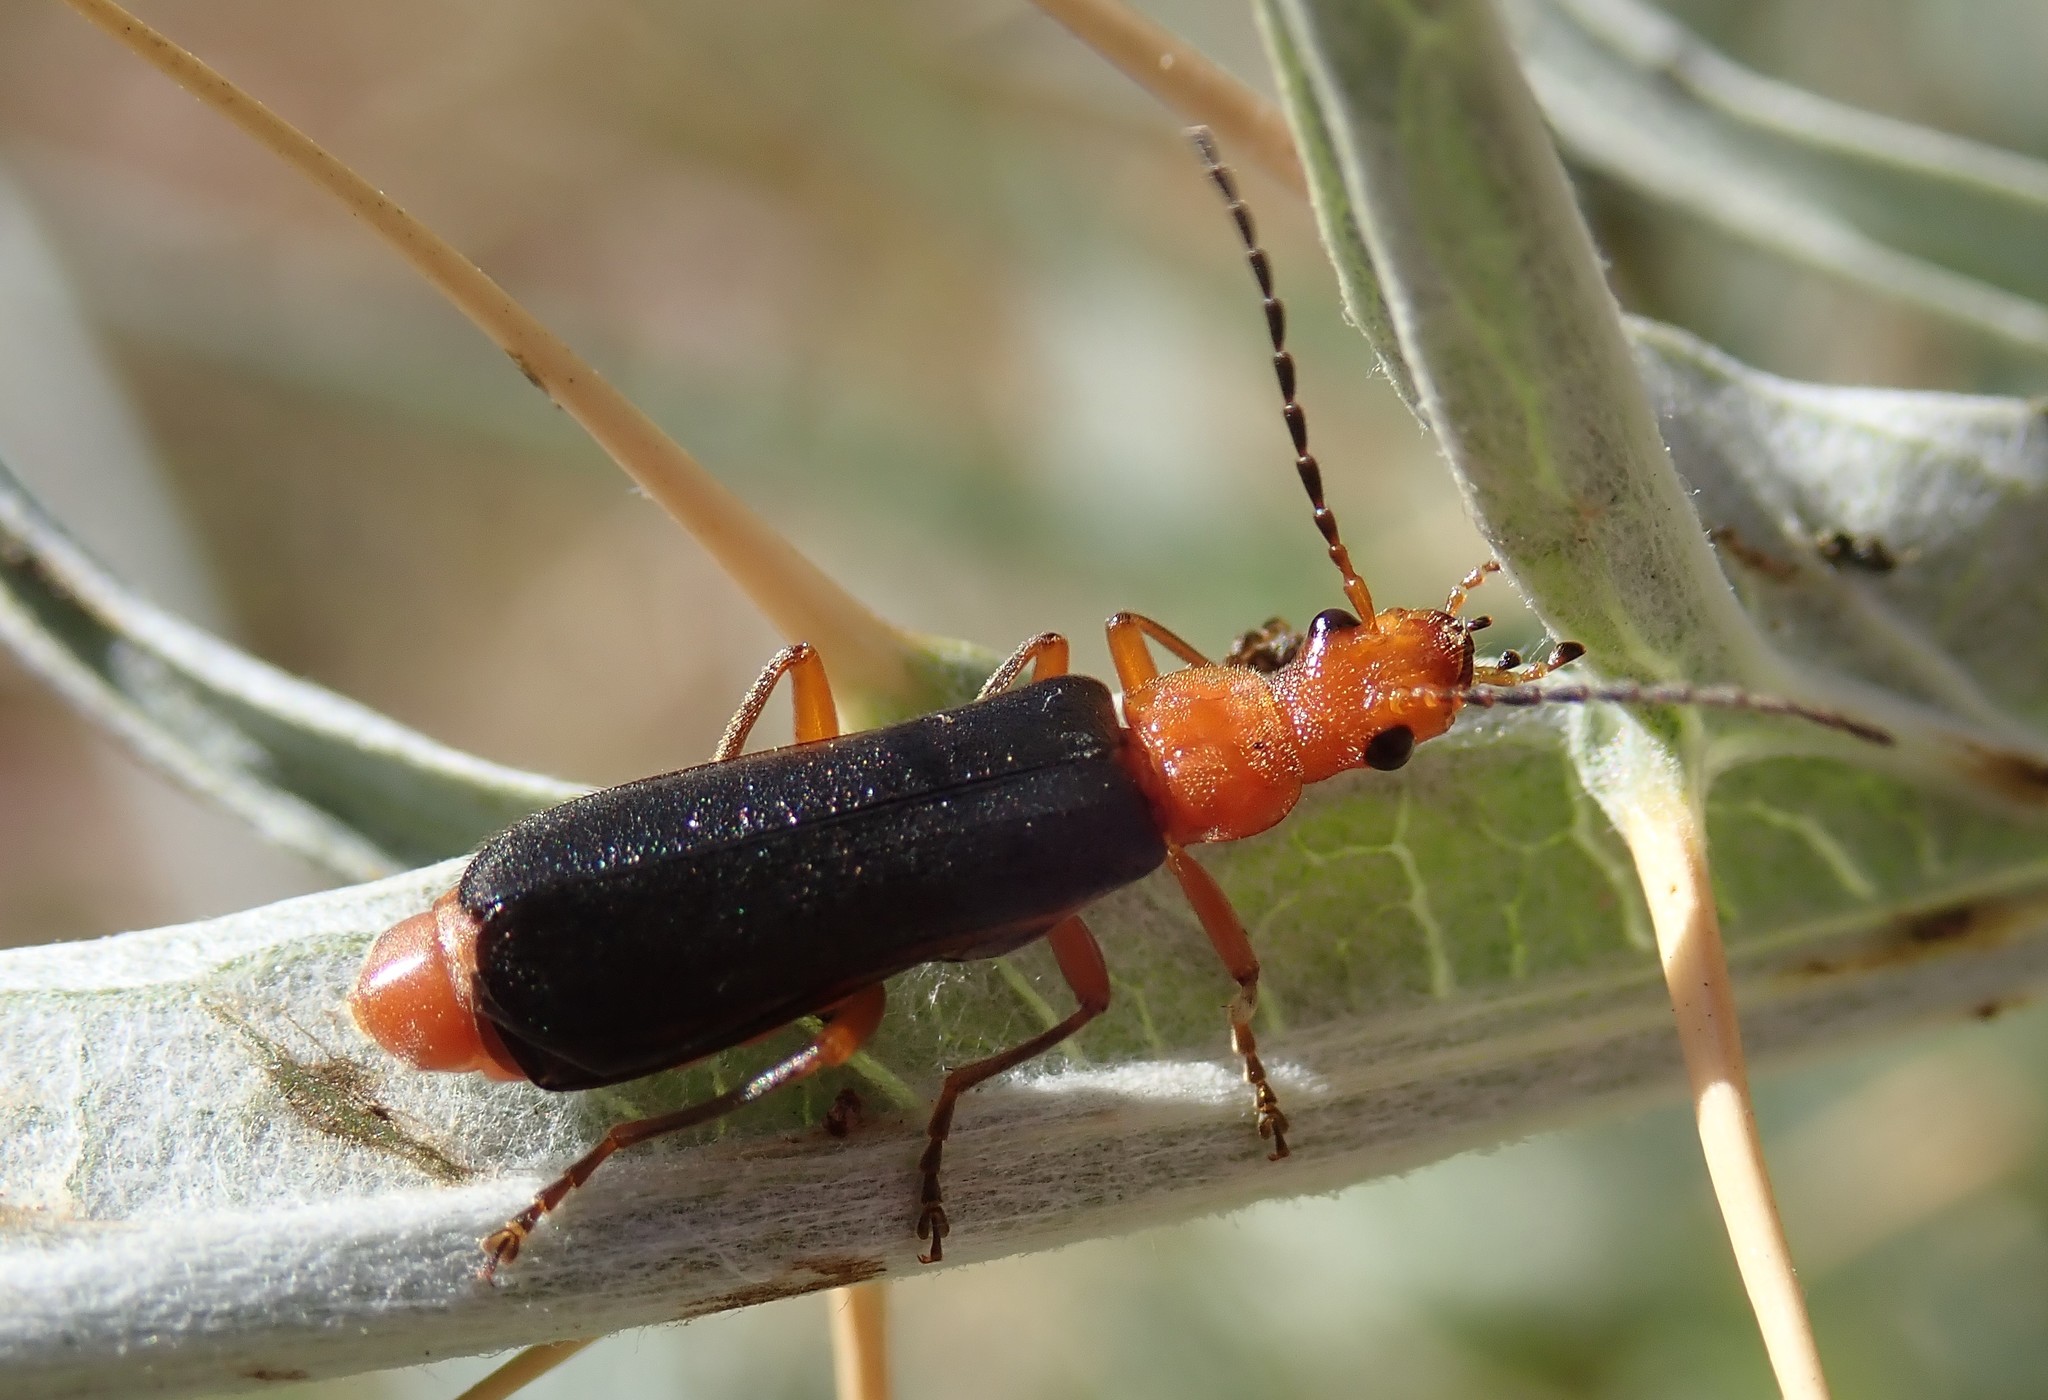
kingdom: Animalia
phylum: Arthropoda
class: Insecta
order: Coleoptera
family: Cantharidae
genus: Podabrus
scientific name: Podabrus pruinosus
